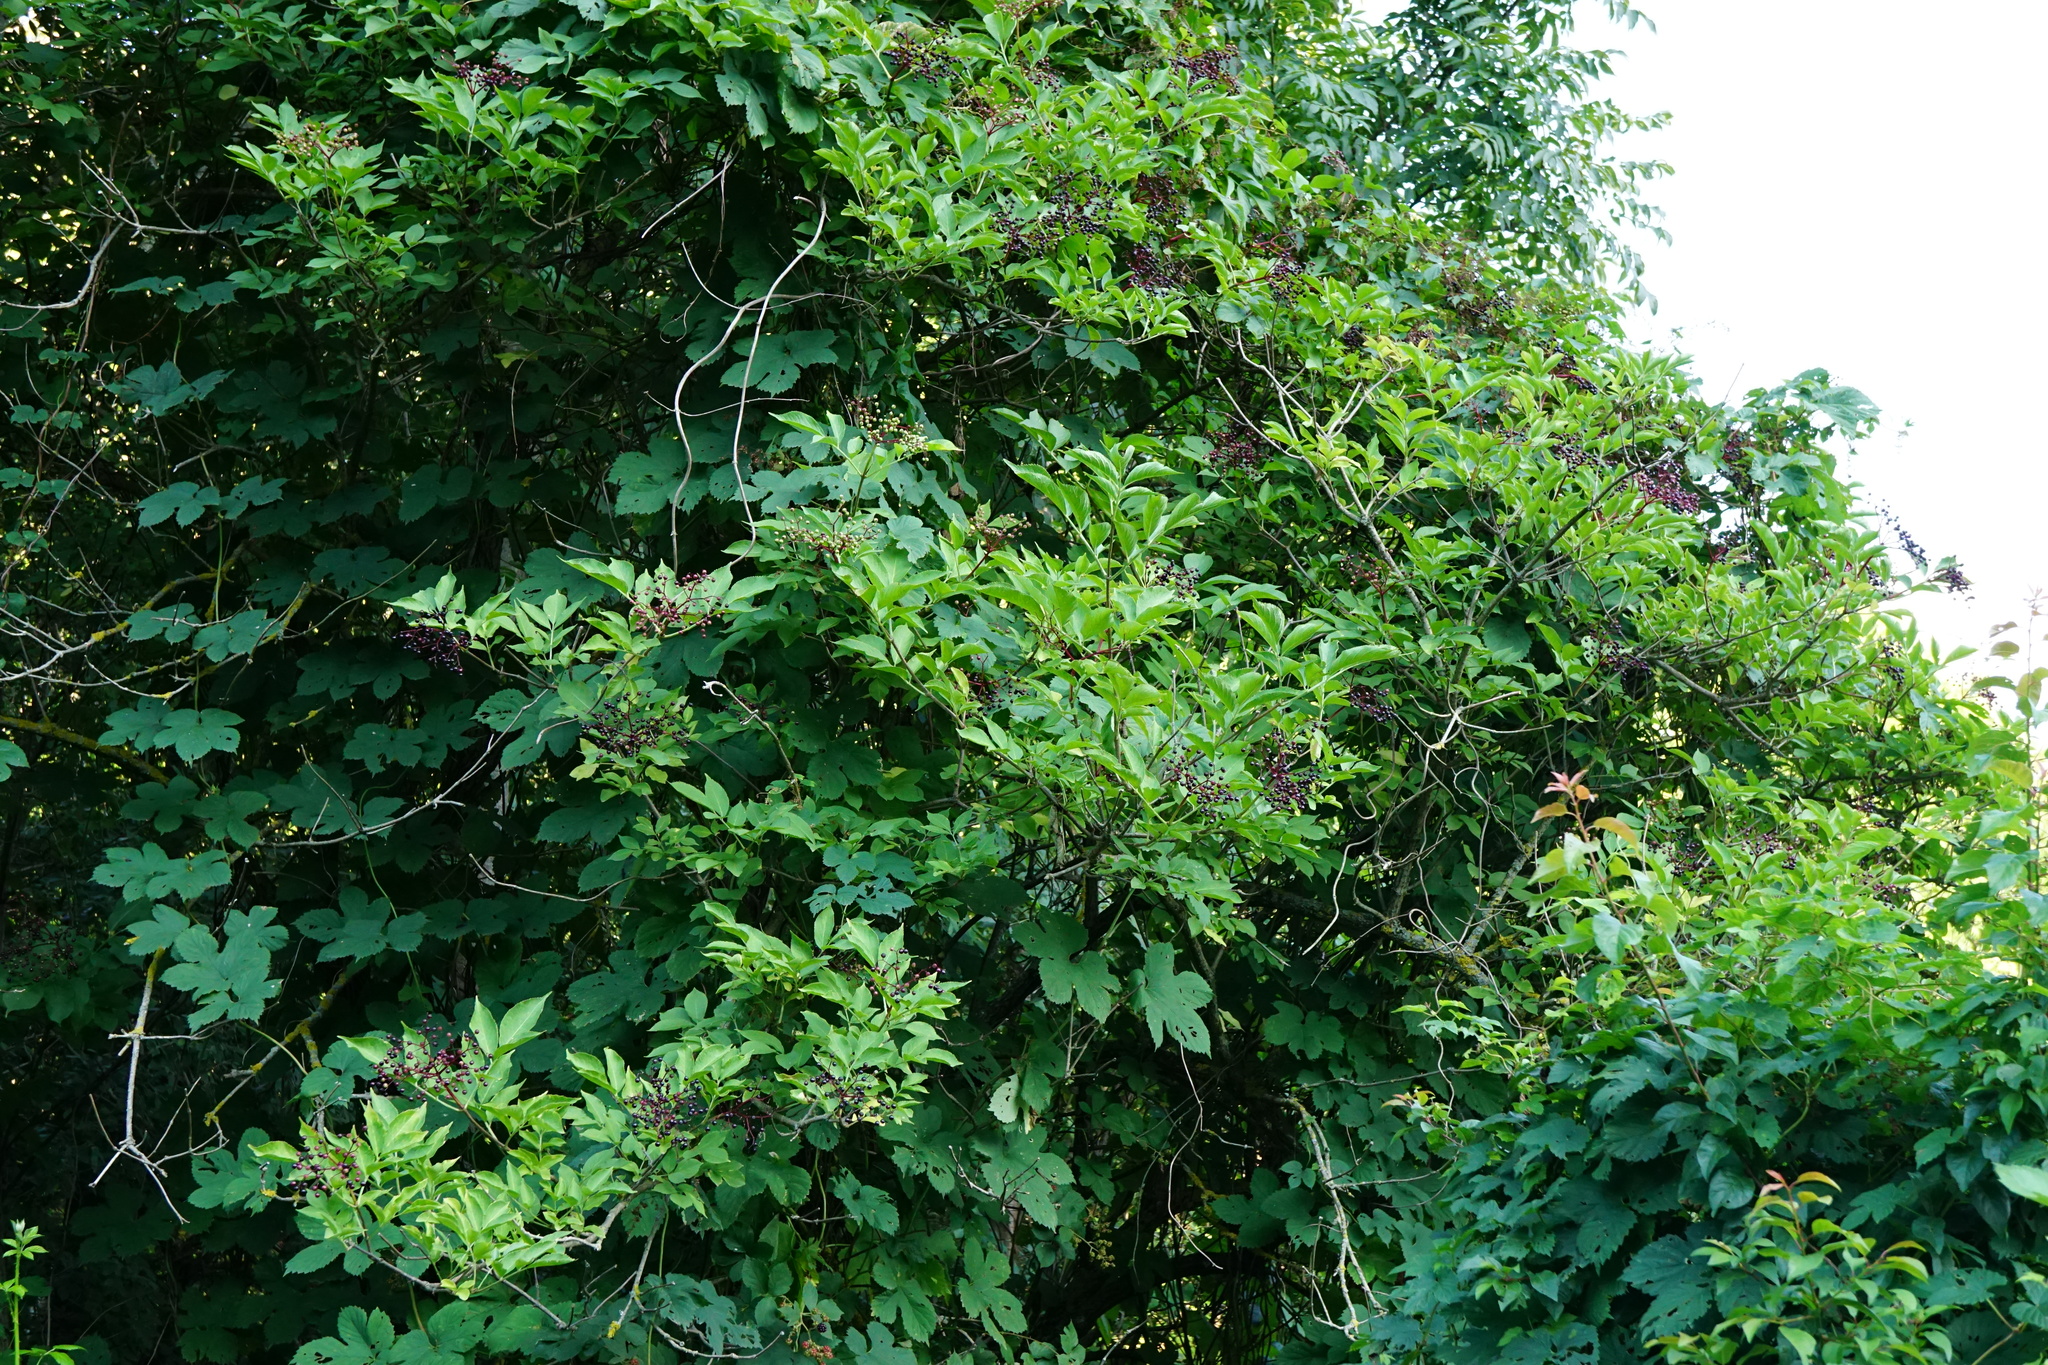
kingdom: Plantae
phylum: Tracheophyta
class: Magnoliopsida
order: Dipsacales
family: Viburnaceae
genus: Sambucus
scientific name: Sambucus nigra
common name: Elder
